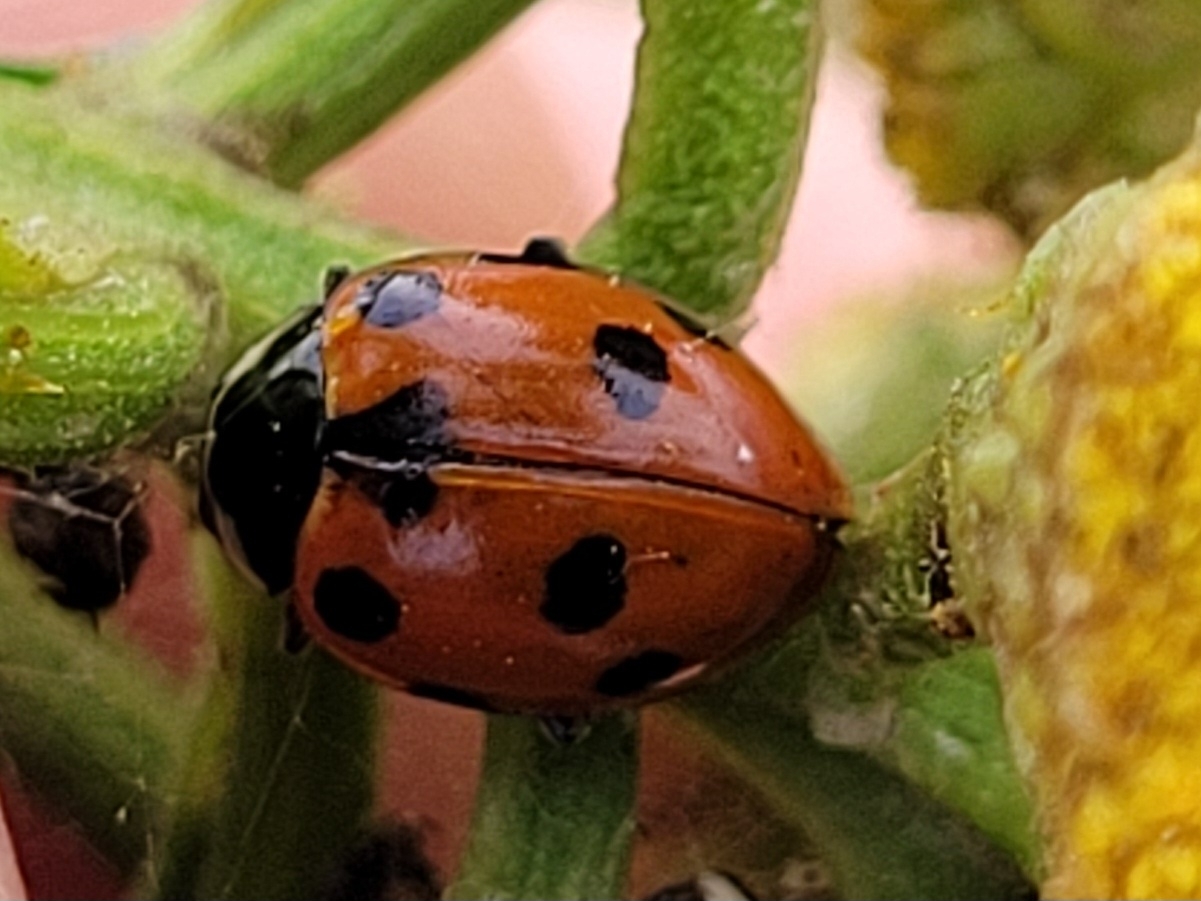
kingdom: Animalia
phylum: Arthropoda
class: Insecta
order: Coleoptera
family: Coccinellidae
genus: Ceratomegilla
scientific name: Ceratomegilla undecimnotata
